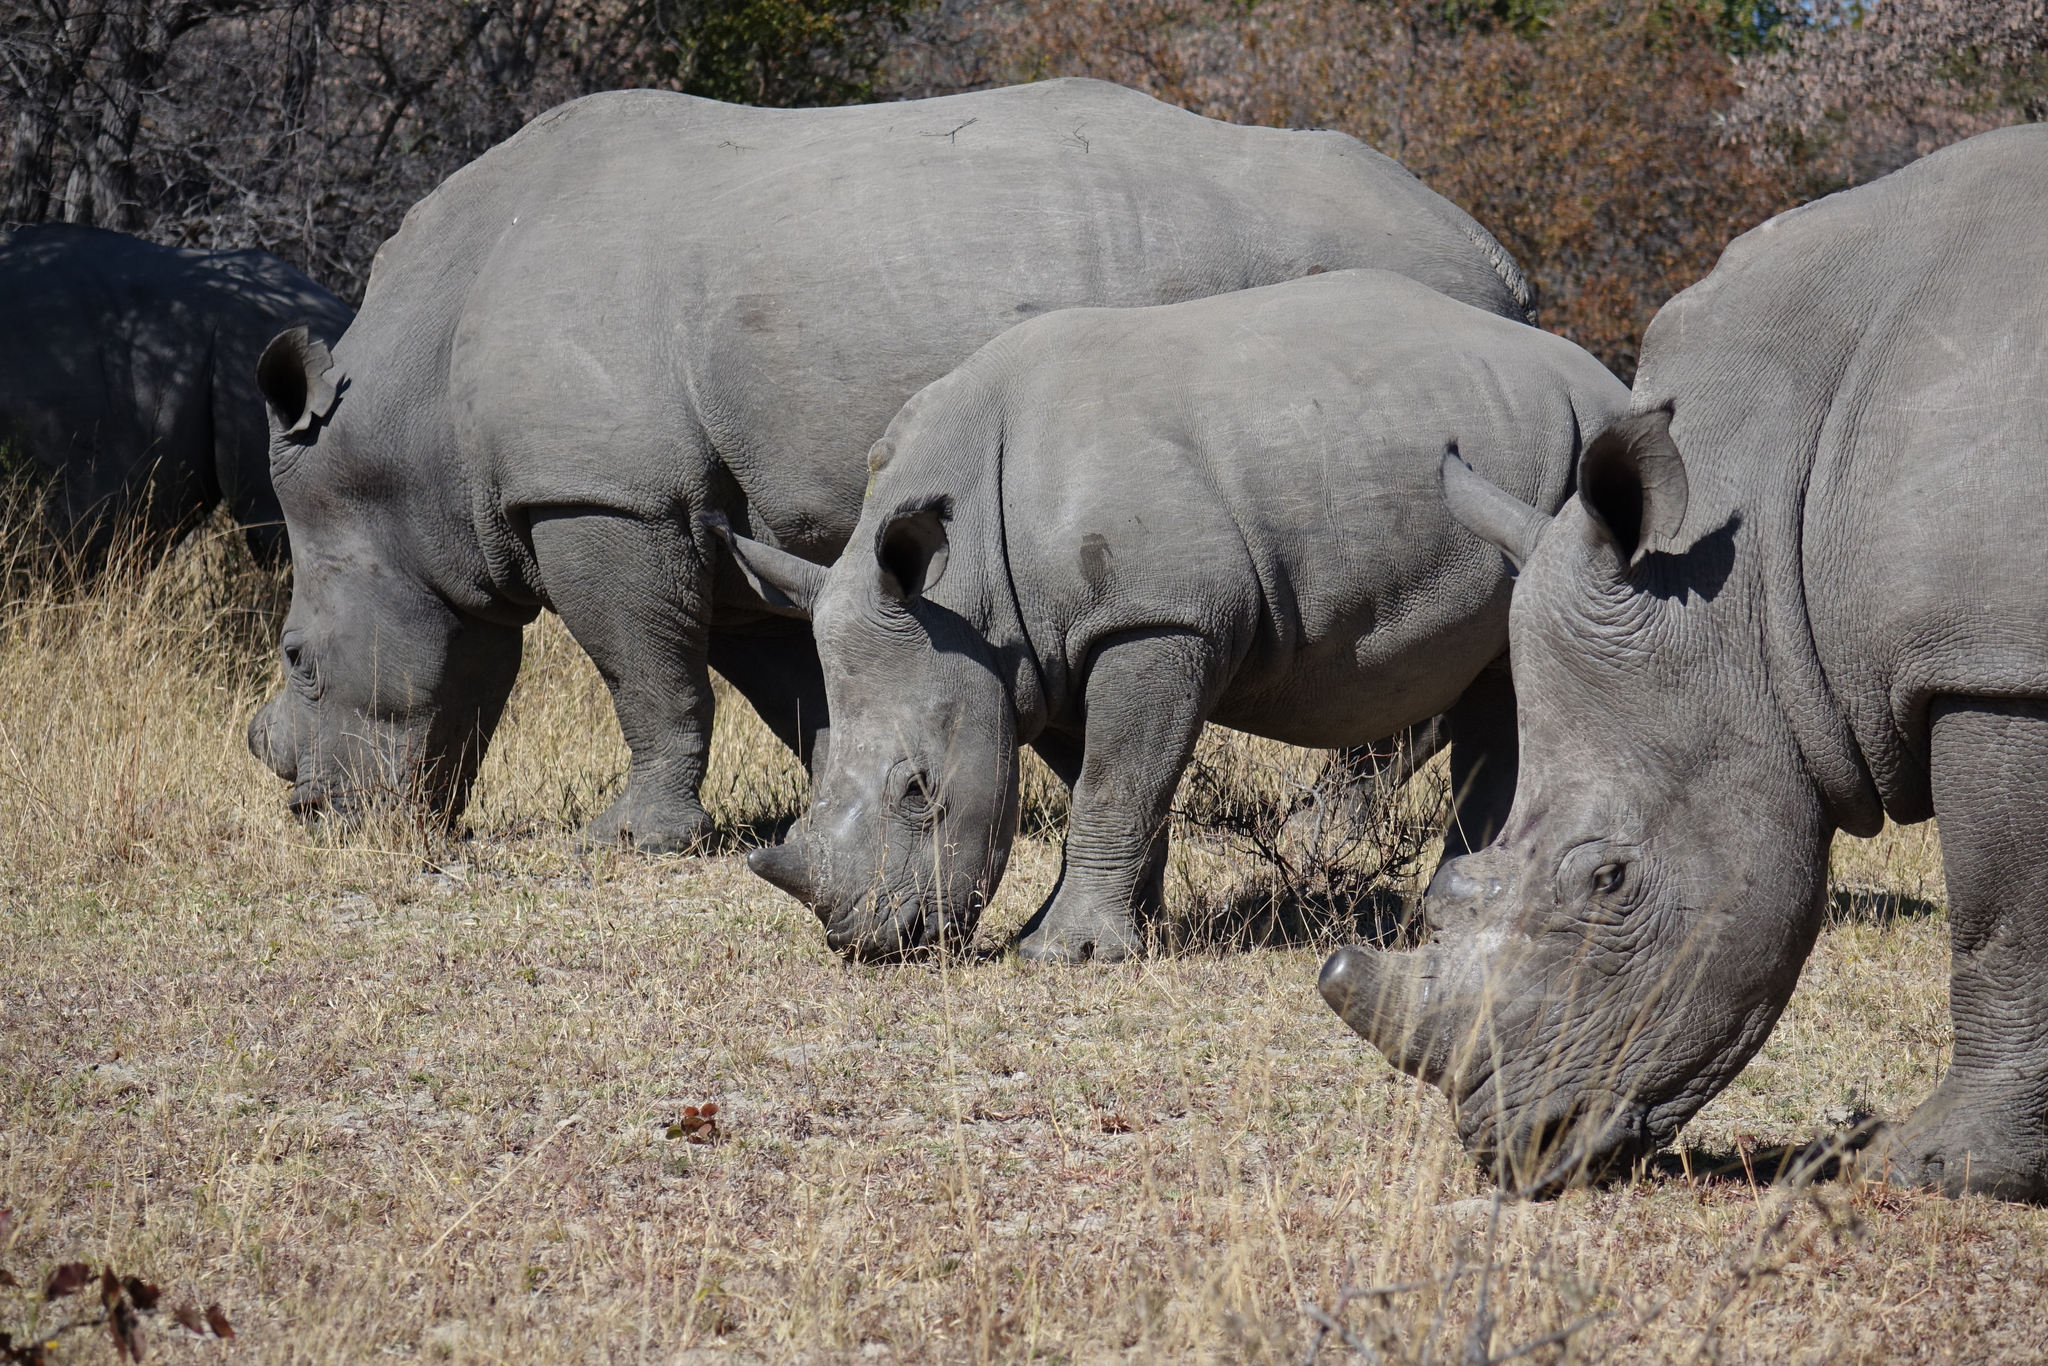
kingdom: Animalia
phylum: Chordata
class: Mammalia
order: Perissodactyla
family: Rhinocerotidae
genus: Ceratotherium
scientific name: Ceratotherium simum
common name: White rhinoceros
